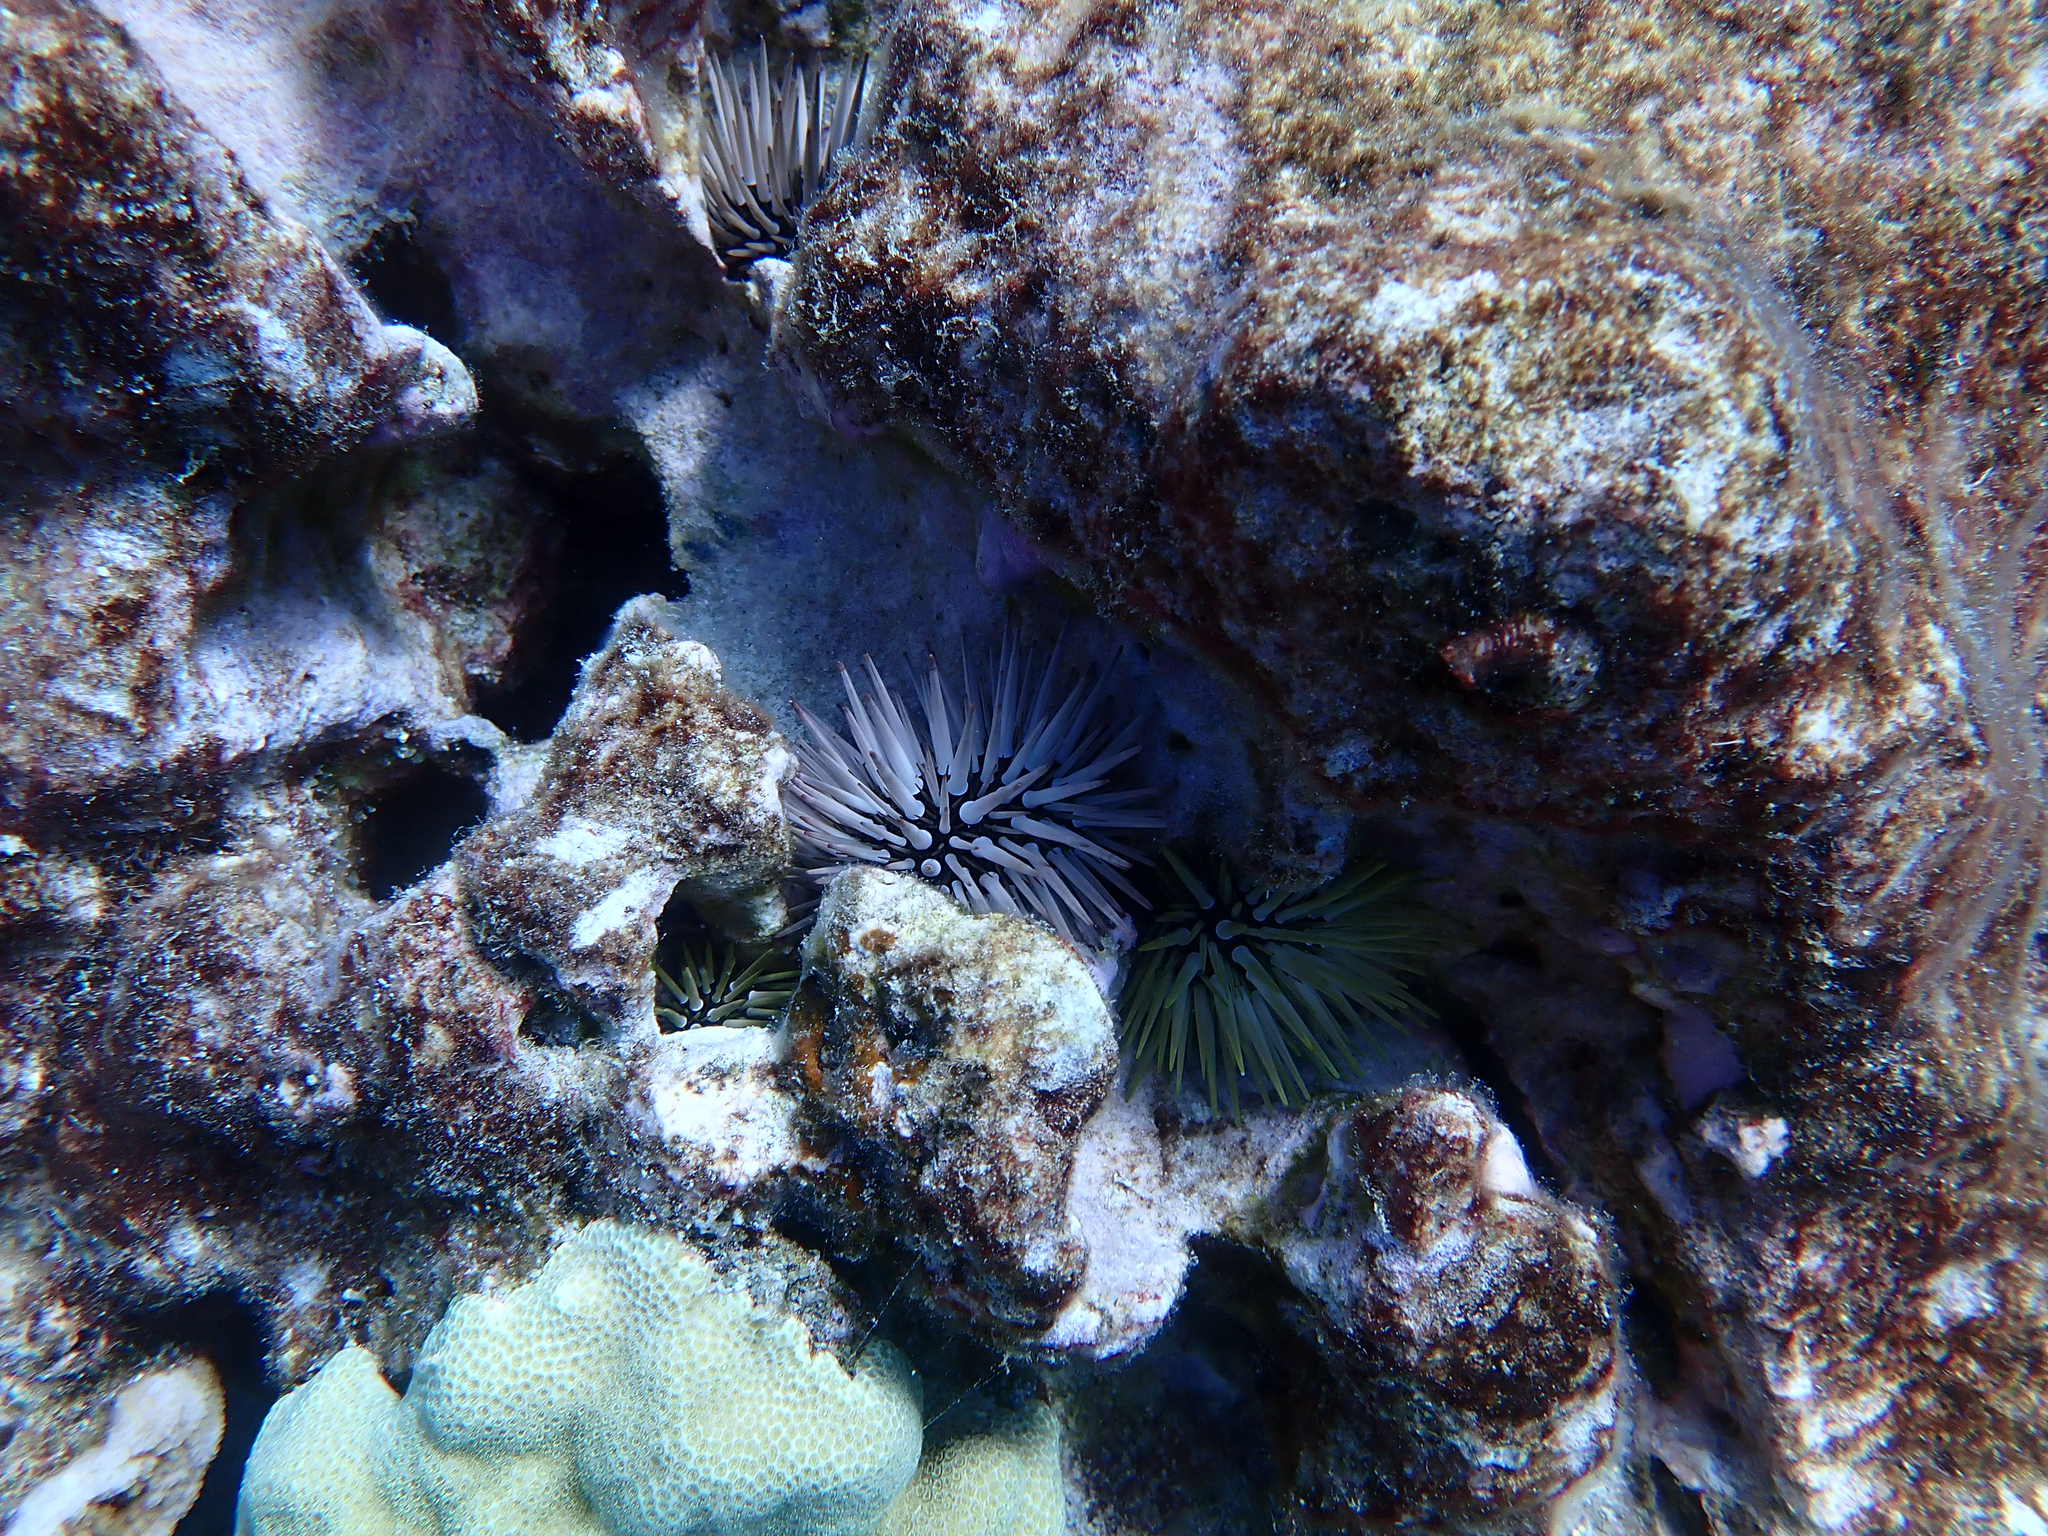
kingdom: Animalia
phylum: Echinodermata
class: Echinoidea
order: Camarodonta
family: Echinometridae
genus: Echinometra
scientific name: Echinometra mathaei
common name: Rock-boring urchin
